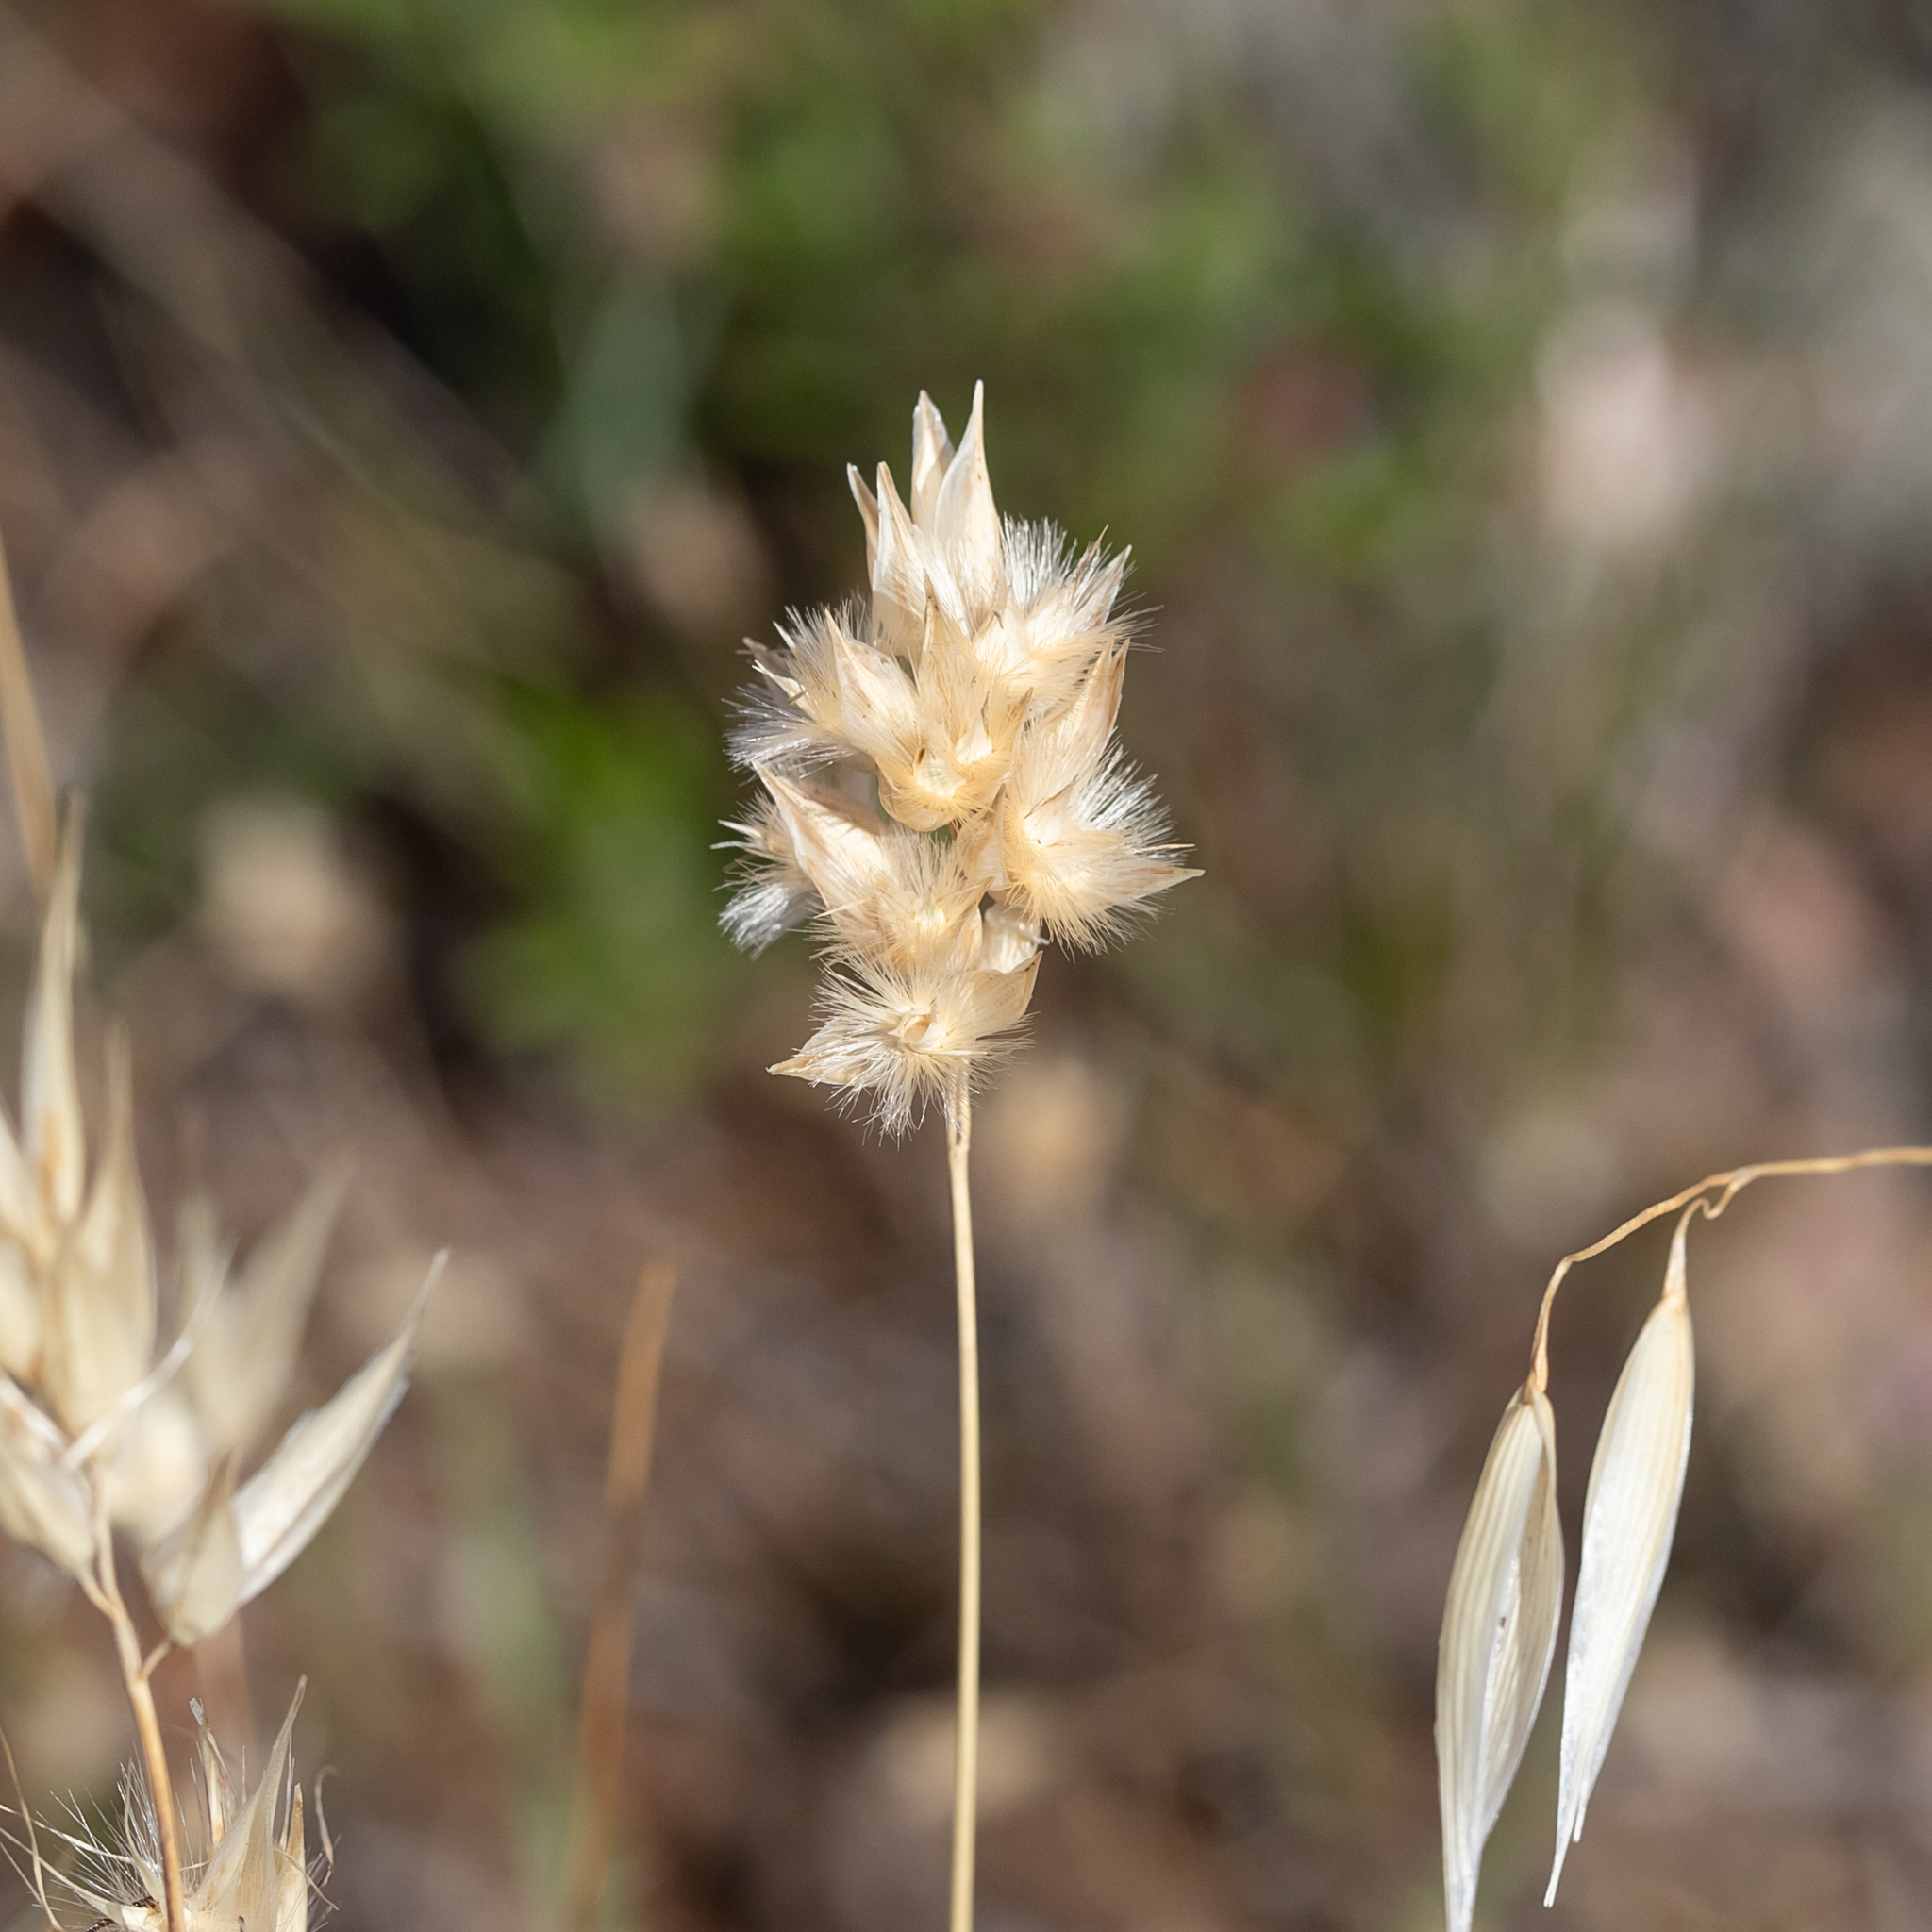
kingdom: Plantae
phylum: Tracheophyta
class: Liliopsida
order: Poales
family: Poaceae
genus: Rytidosperma
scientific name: Rytidosperma carphoides
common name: Short wallaby grass
